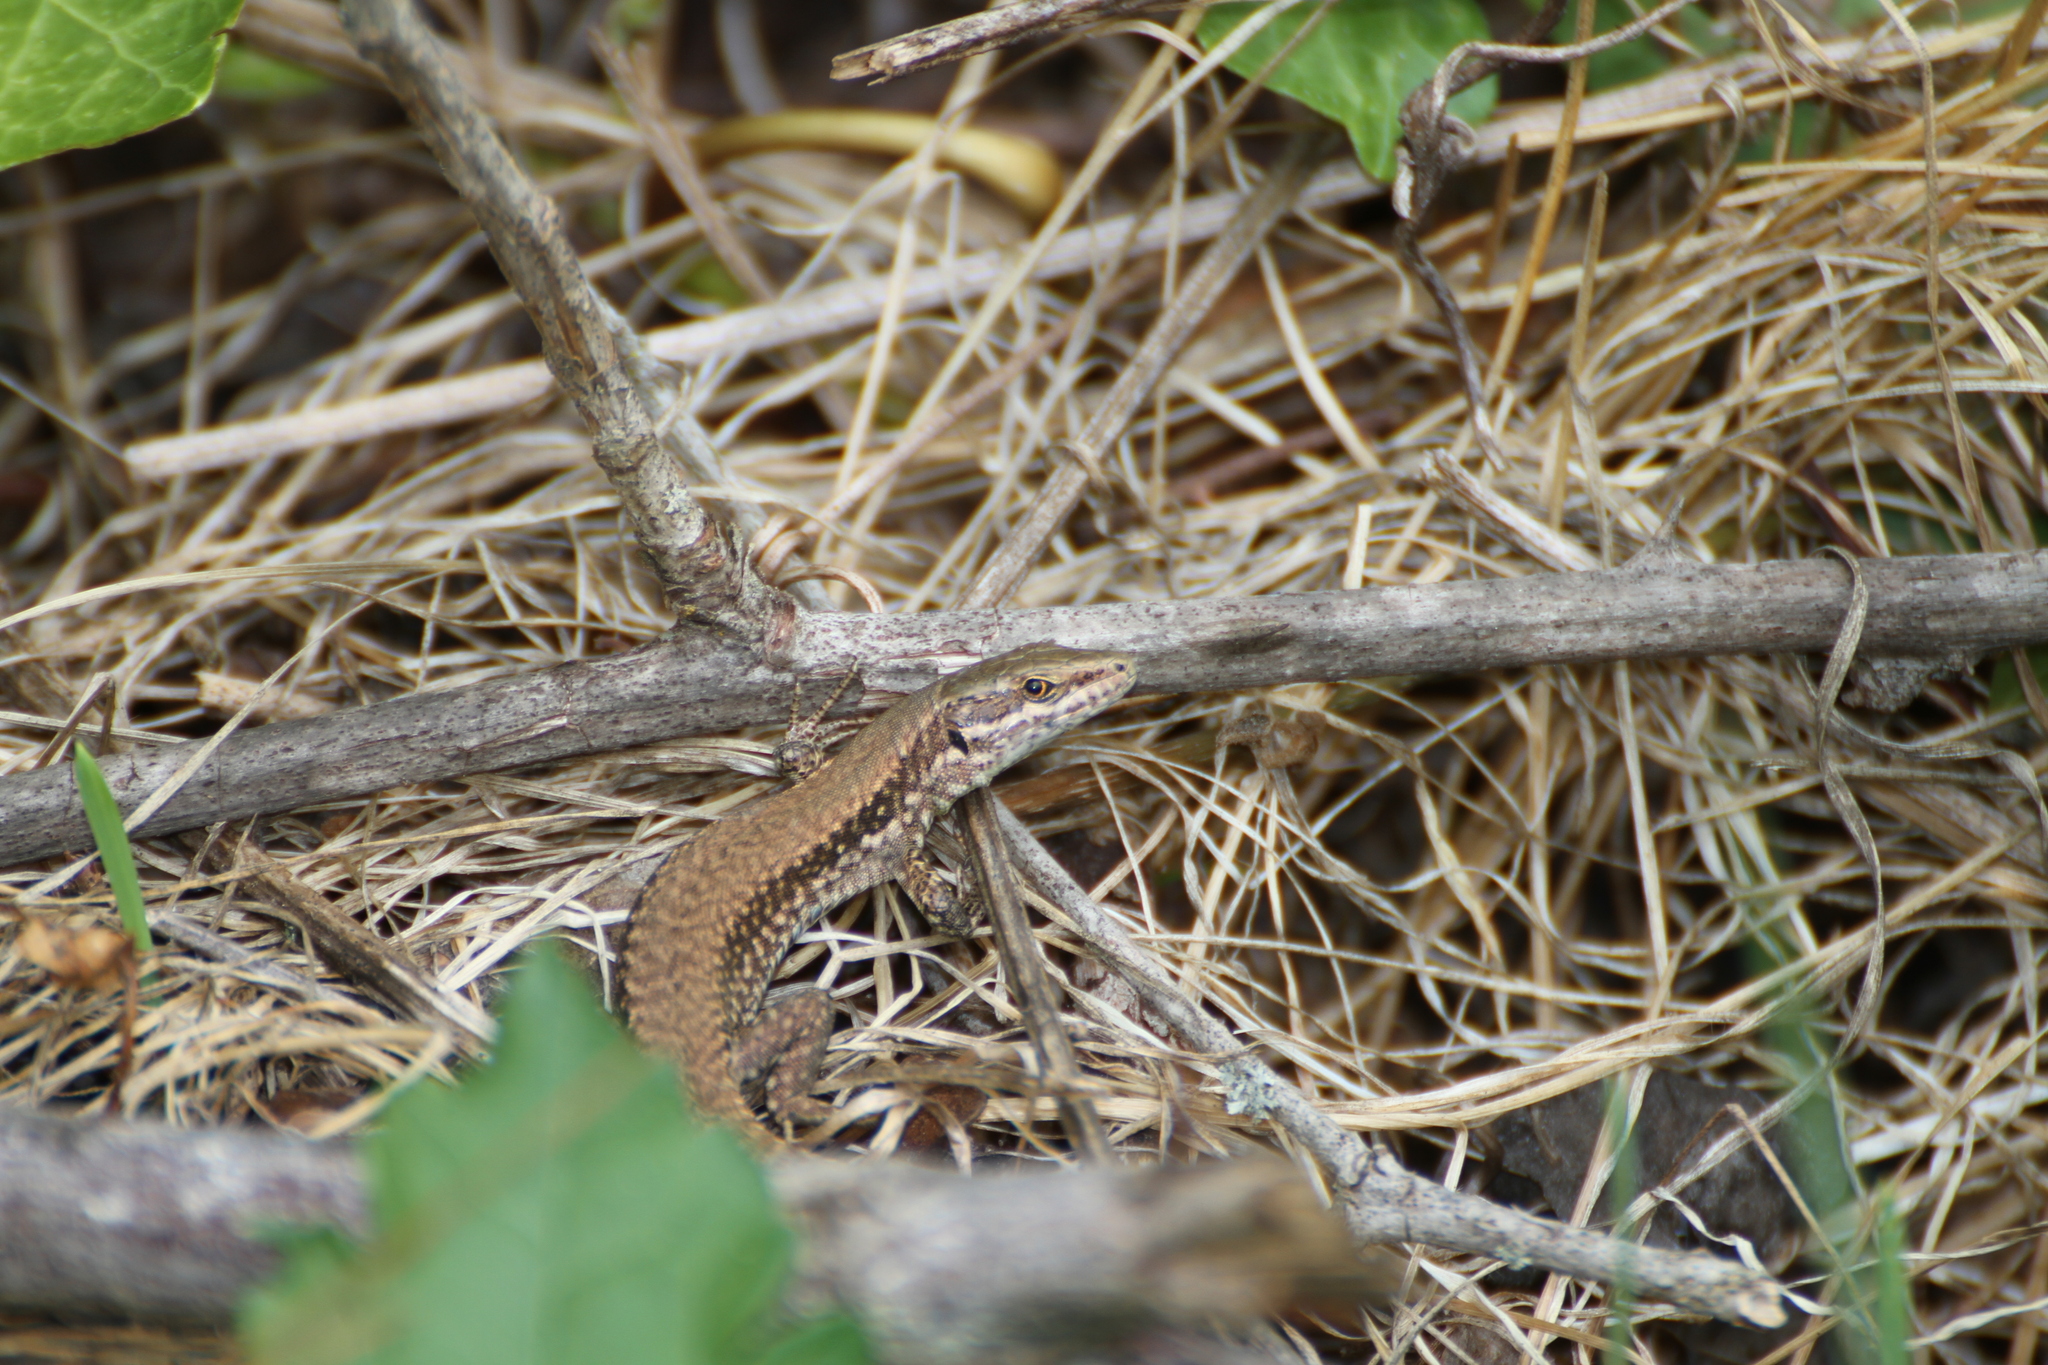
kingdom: Animalia
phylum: Chordata
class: Squamata
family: Lacertidae
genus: Podarcis
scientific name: Podarcis muralis
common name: Common wall lizard
